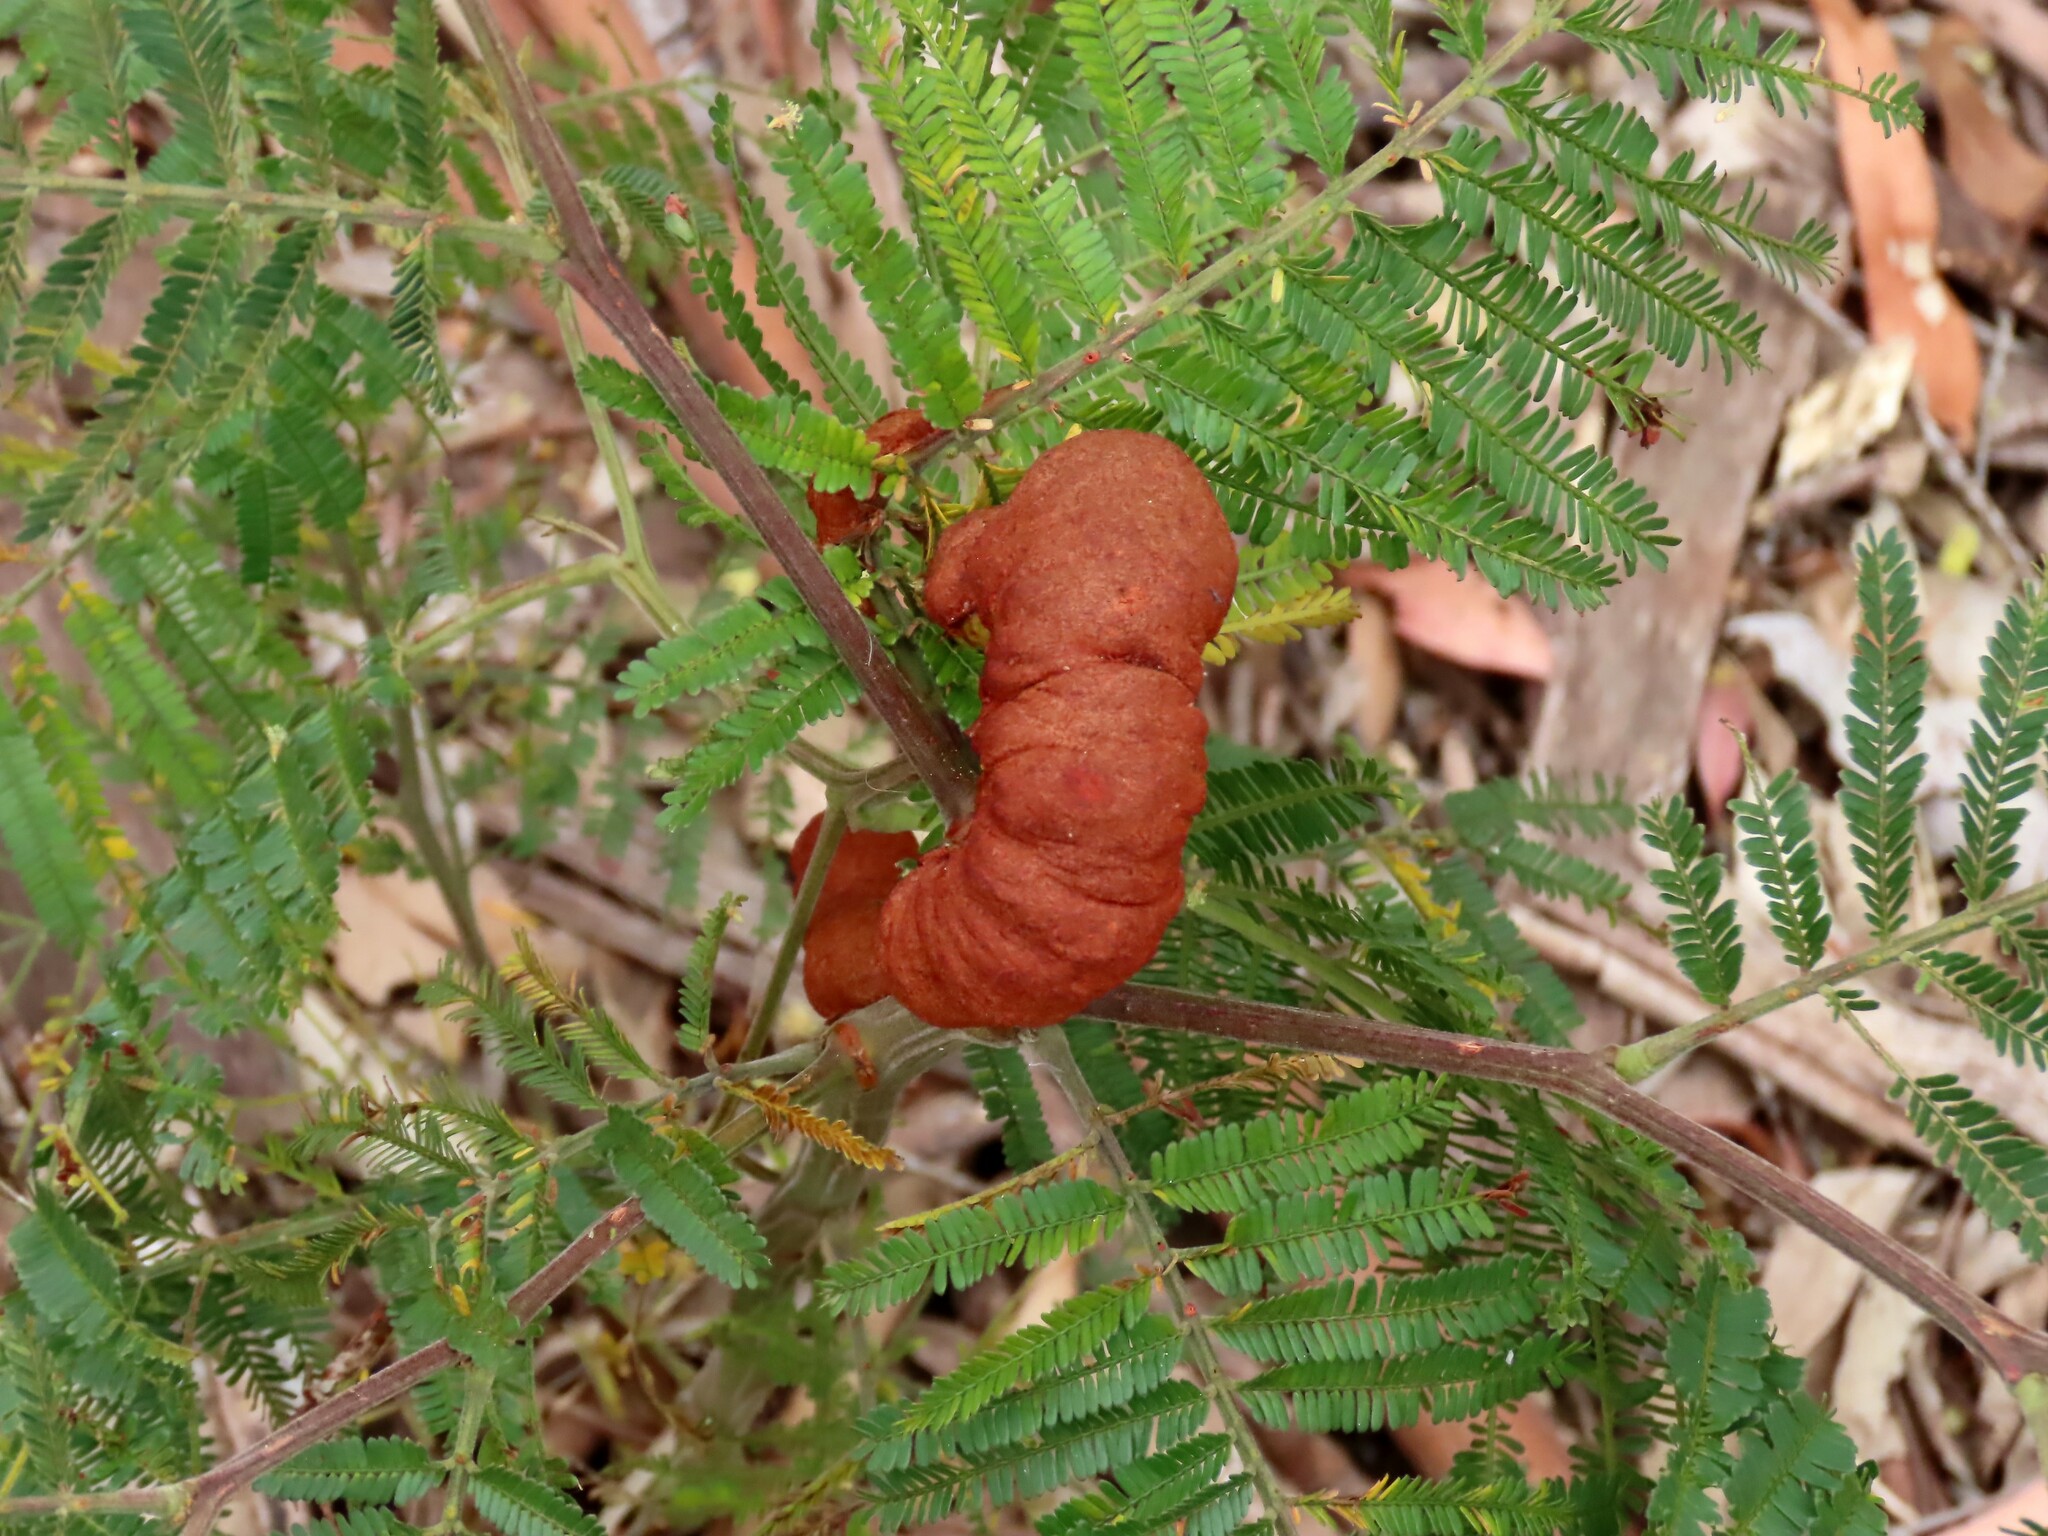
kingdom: Fungi
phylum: Basidiomycota
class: Pucciniomycetes
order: Pucciniales
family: Uromycladiaceae
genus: Uromycladium
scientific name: Uromycladium murphyi
